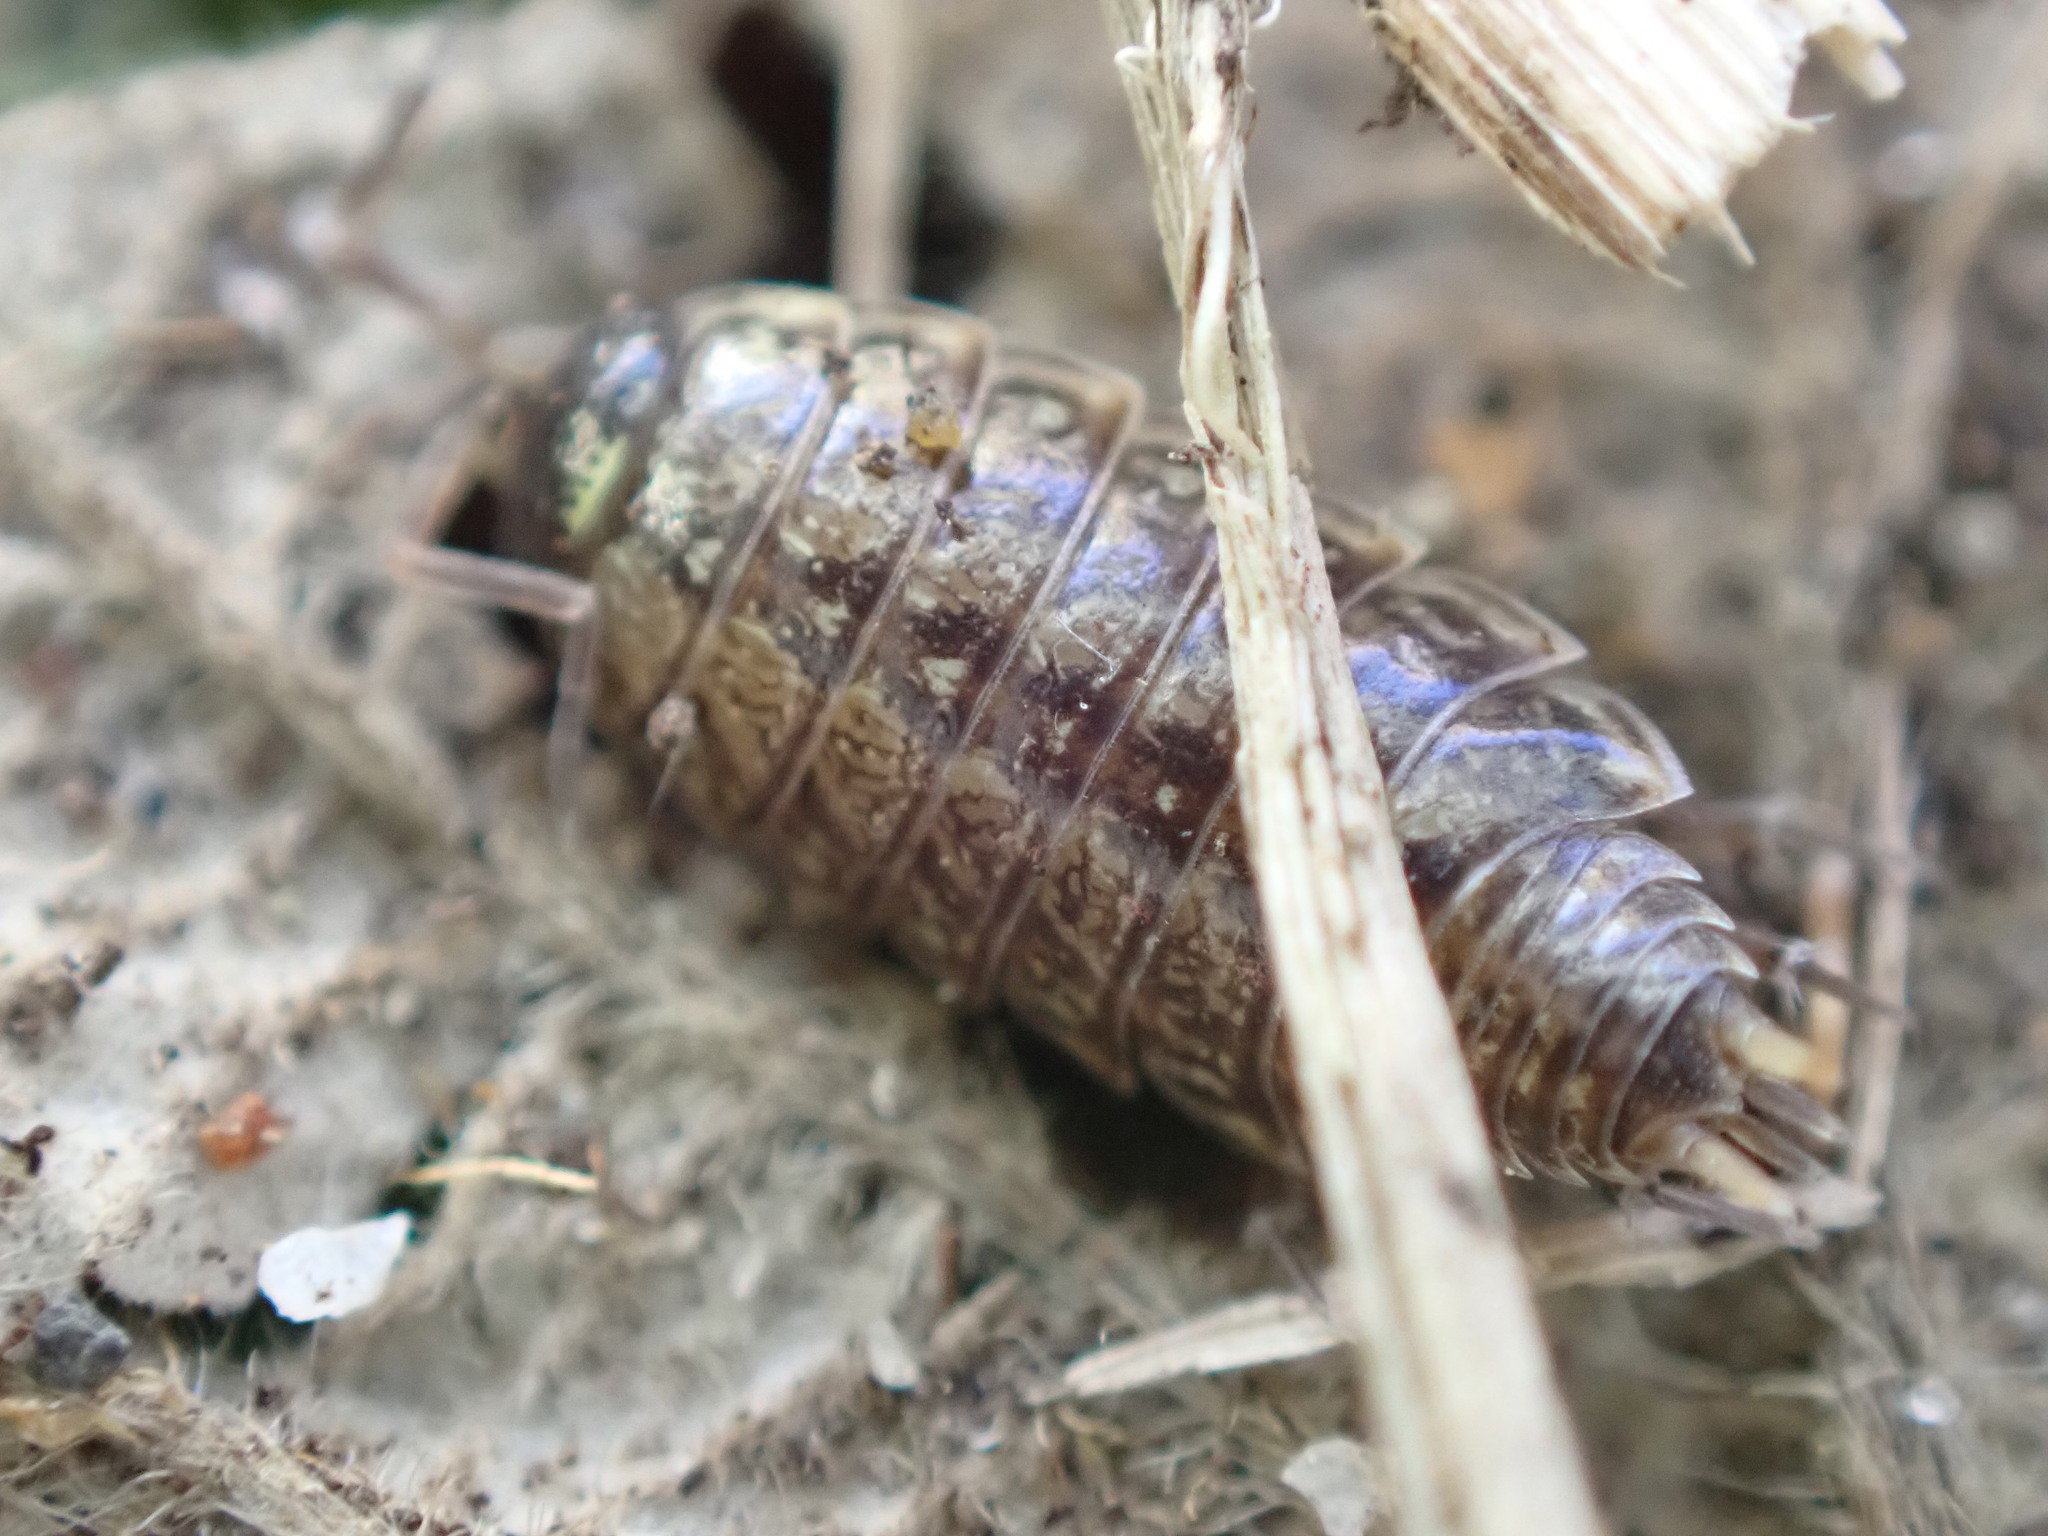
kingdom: Animalia
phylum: Arthropoda
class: Malacostraca
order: Isopoda
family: Philosciidae
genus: Philoscia
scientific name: Philoscia muscorum
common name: Common striped woodlouse
